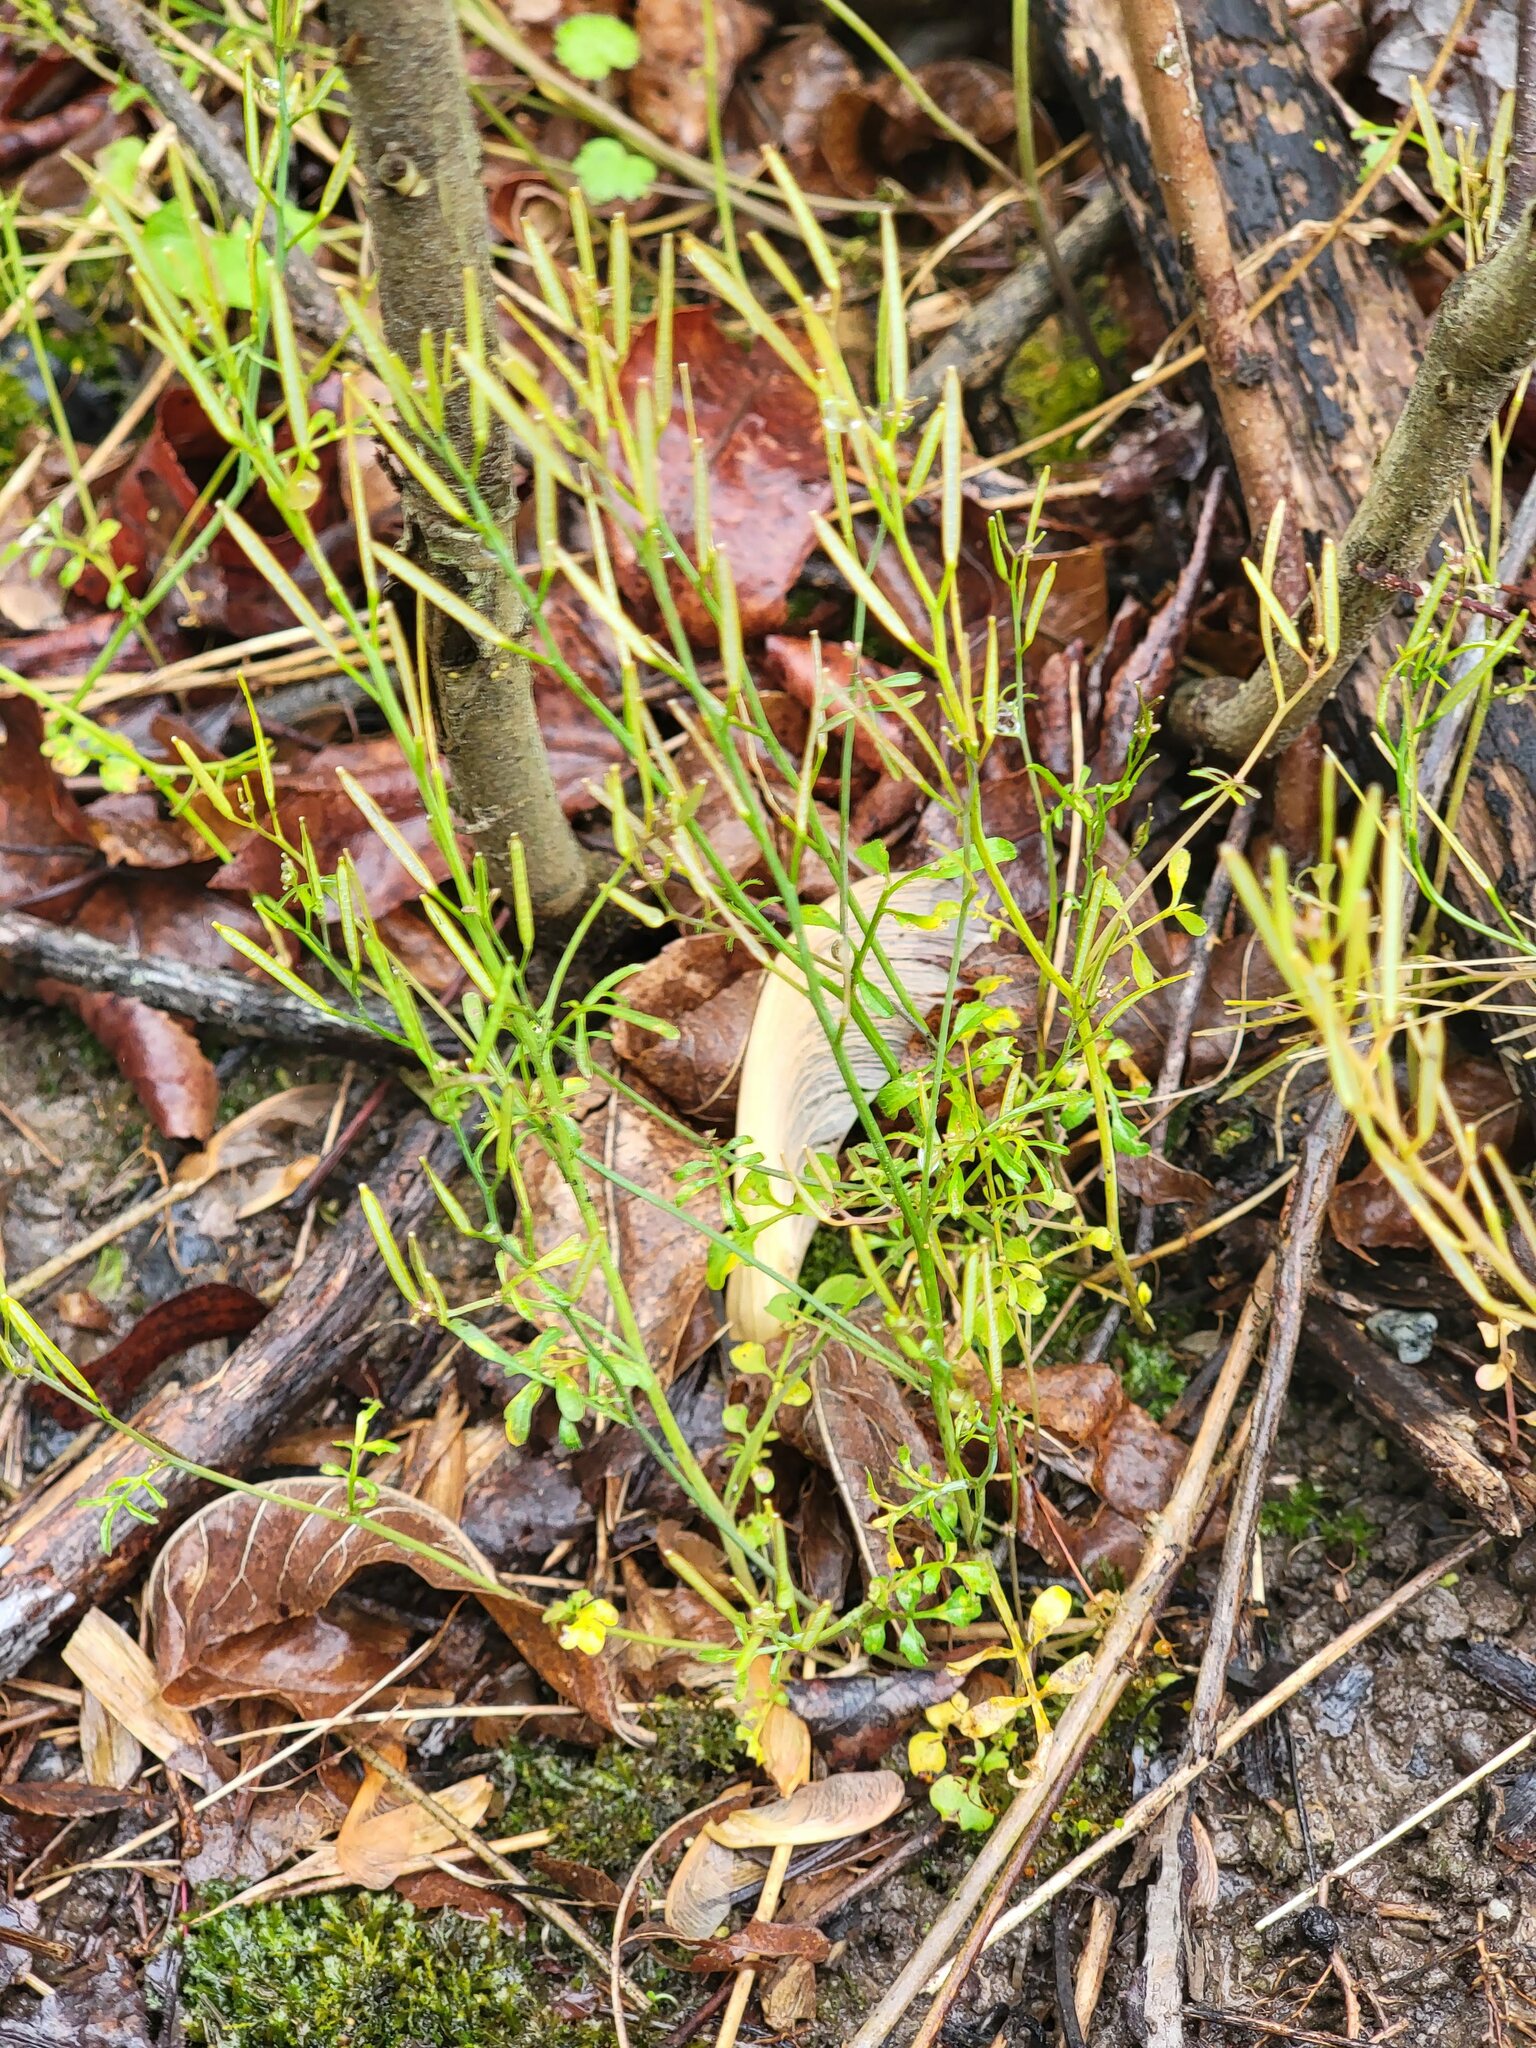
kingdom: Plantae
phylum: Tracheophyta
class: Magnoliopsida
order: Brassicales
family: Brassicaceae
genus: Cardamine
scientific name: Cardamine hirsuta
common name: Hairy bittercress
